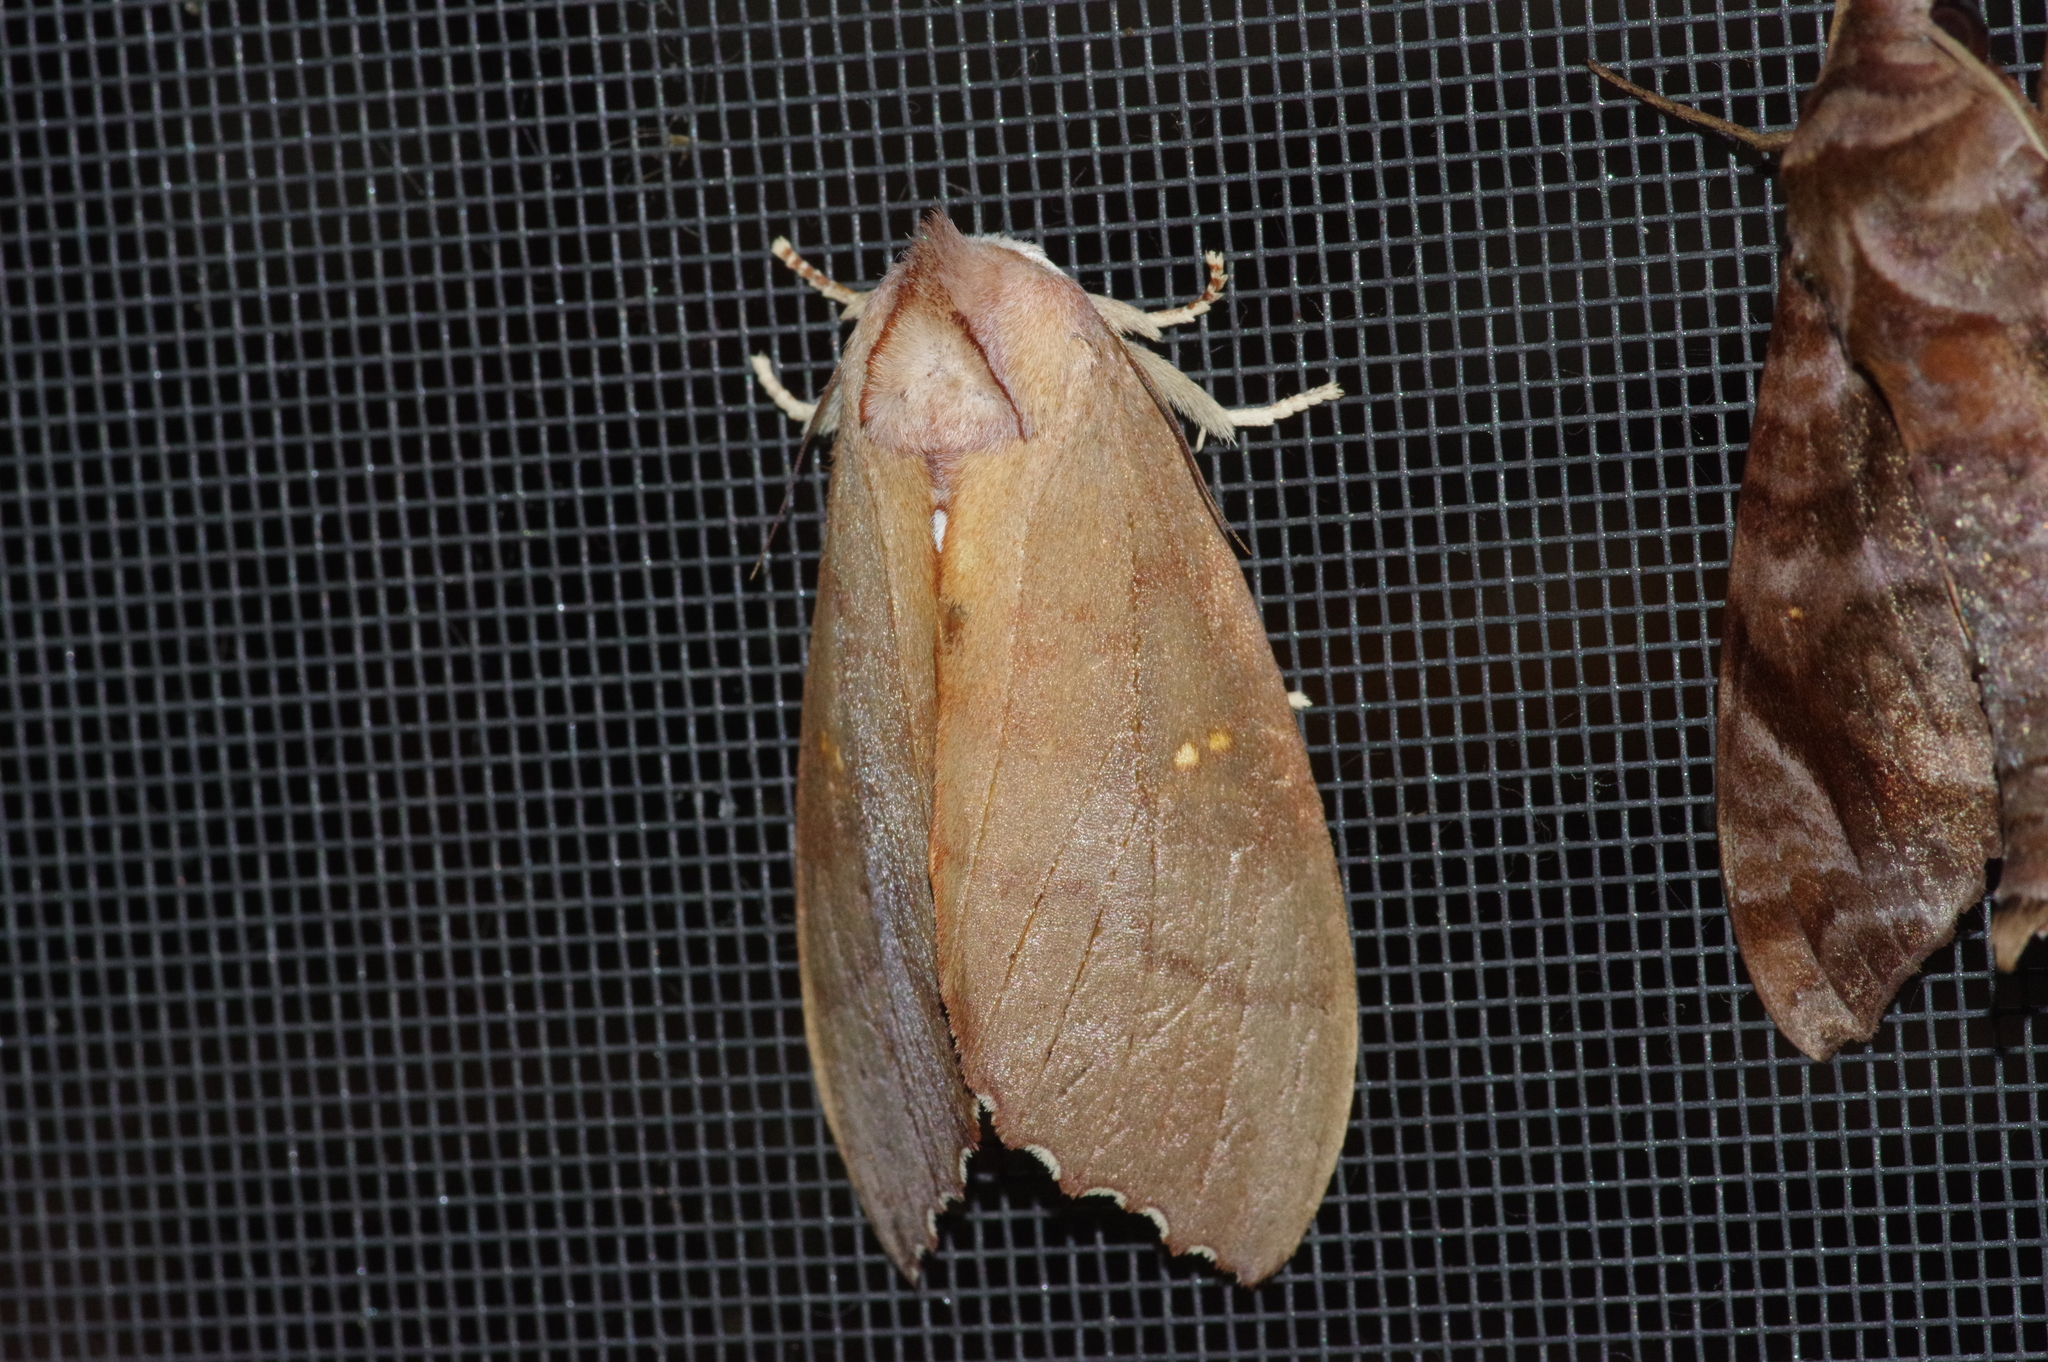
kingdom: Animalia
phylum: Arthropoda
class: Insecta
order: Lepidoptera
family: Notodontidae
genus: Euhampsonia
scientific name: Euhampsonia cristata
